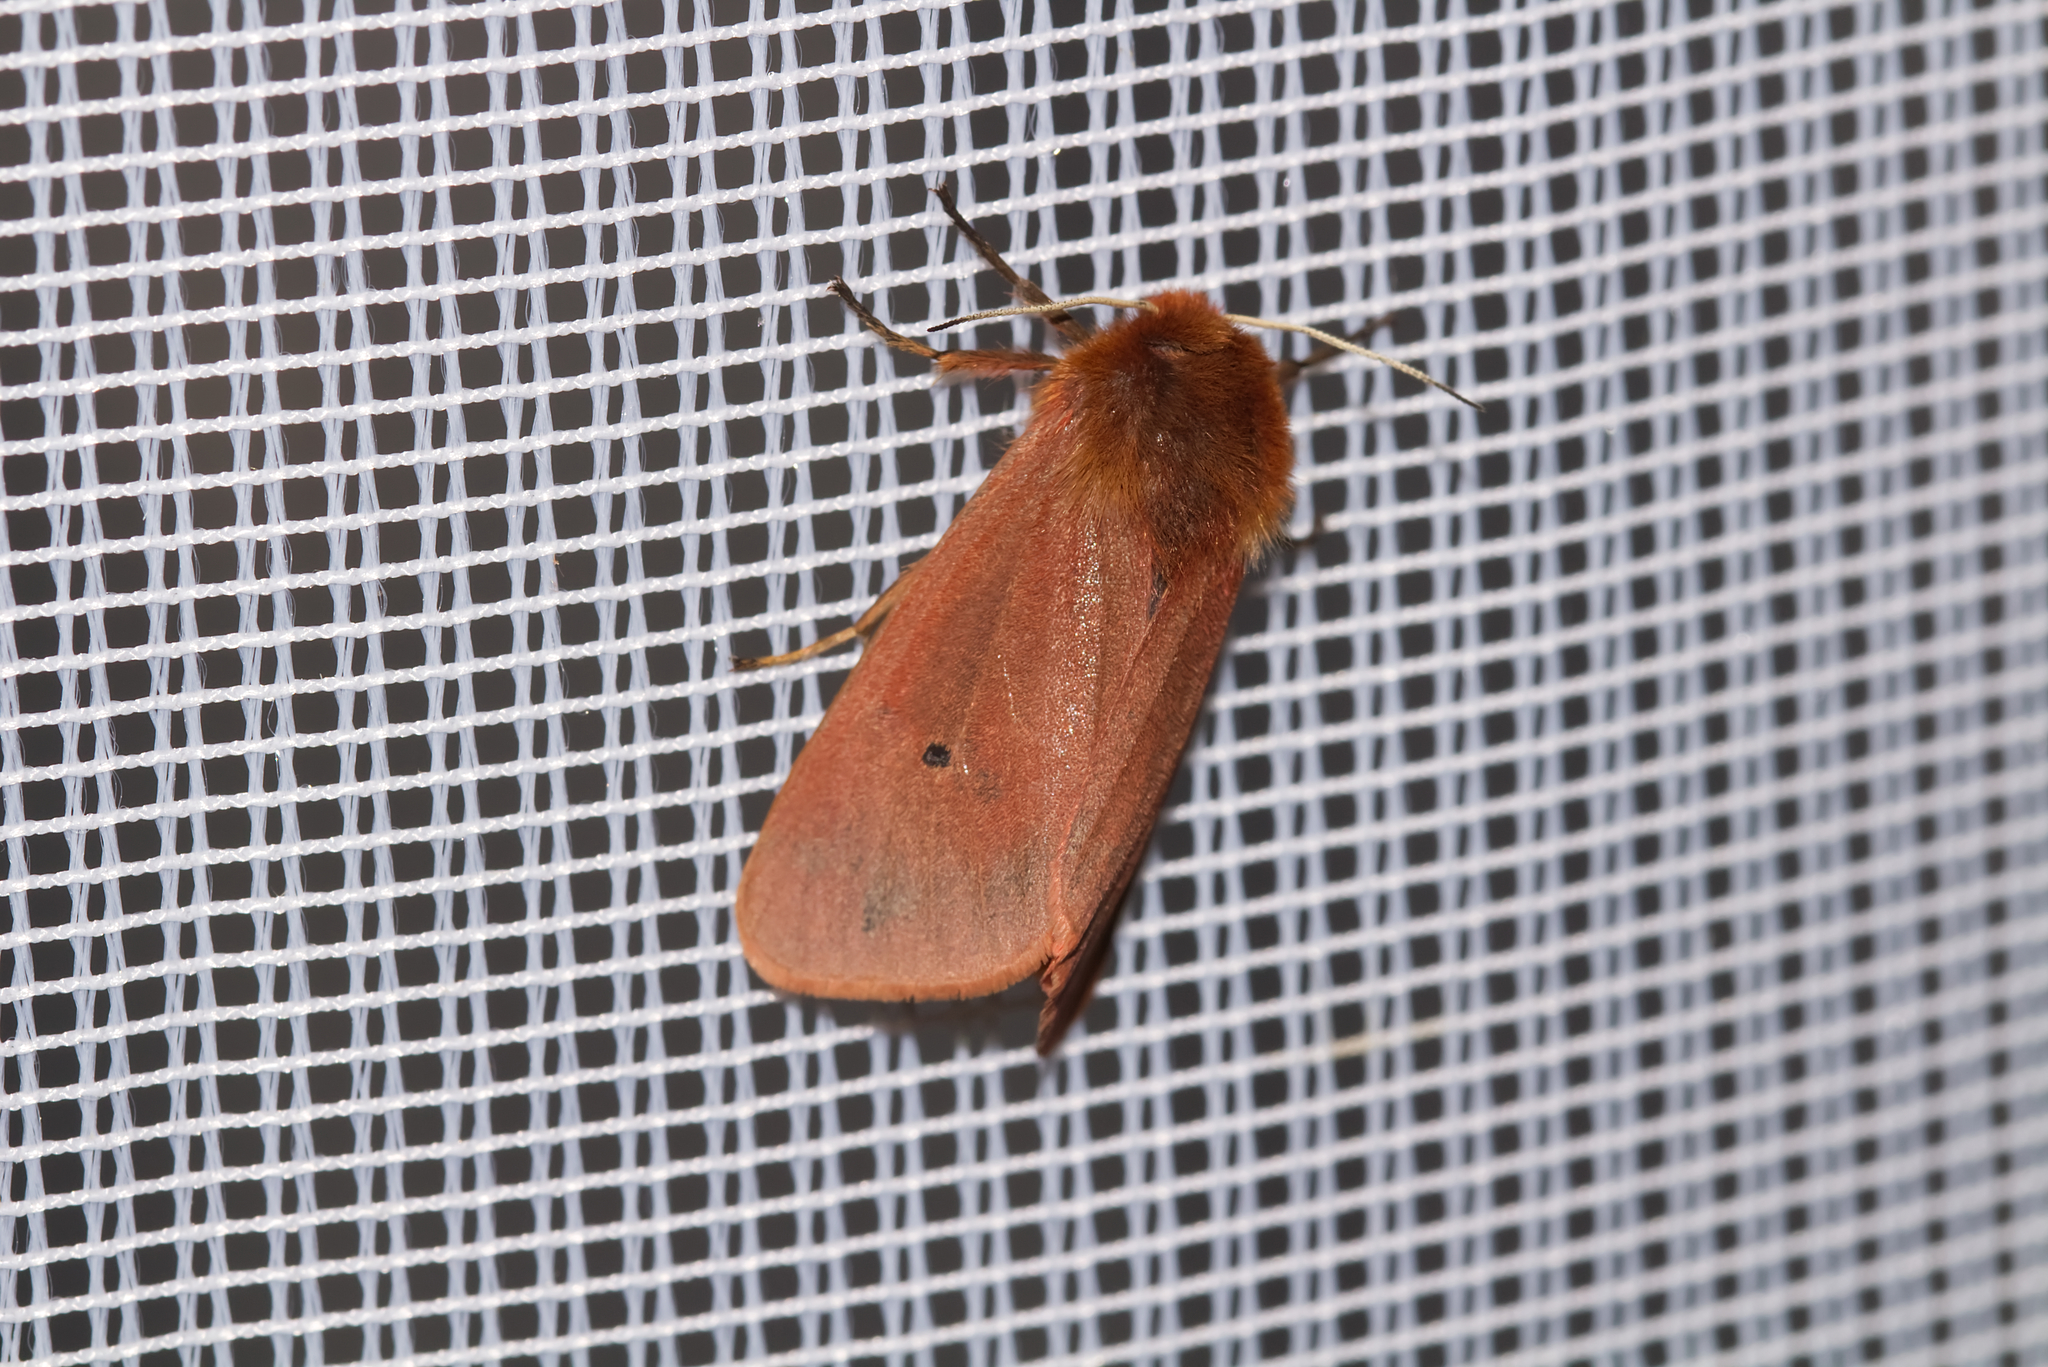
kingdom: Animalia
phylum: Arthropoda
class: Insecta
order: Lepidoptera
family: Erebidae
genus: Phragmatobia
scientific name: Phragmatobia fuliginosa
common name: Ruby tiger
